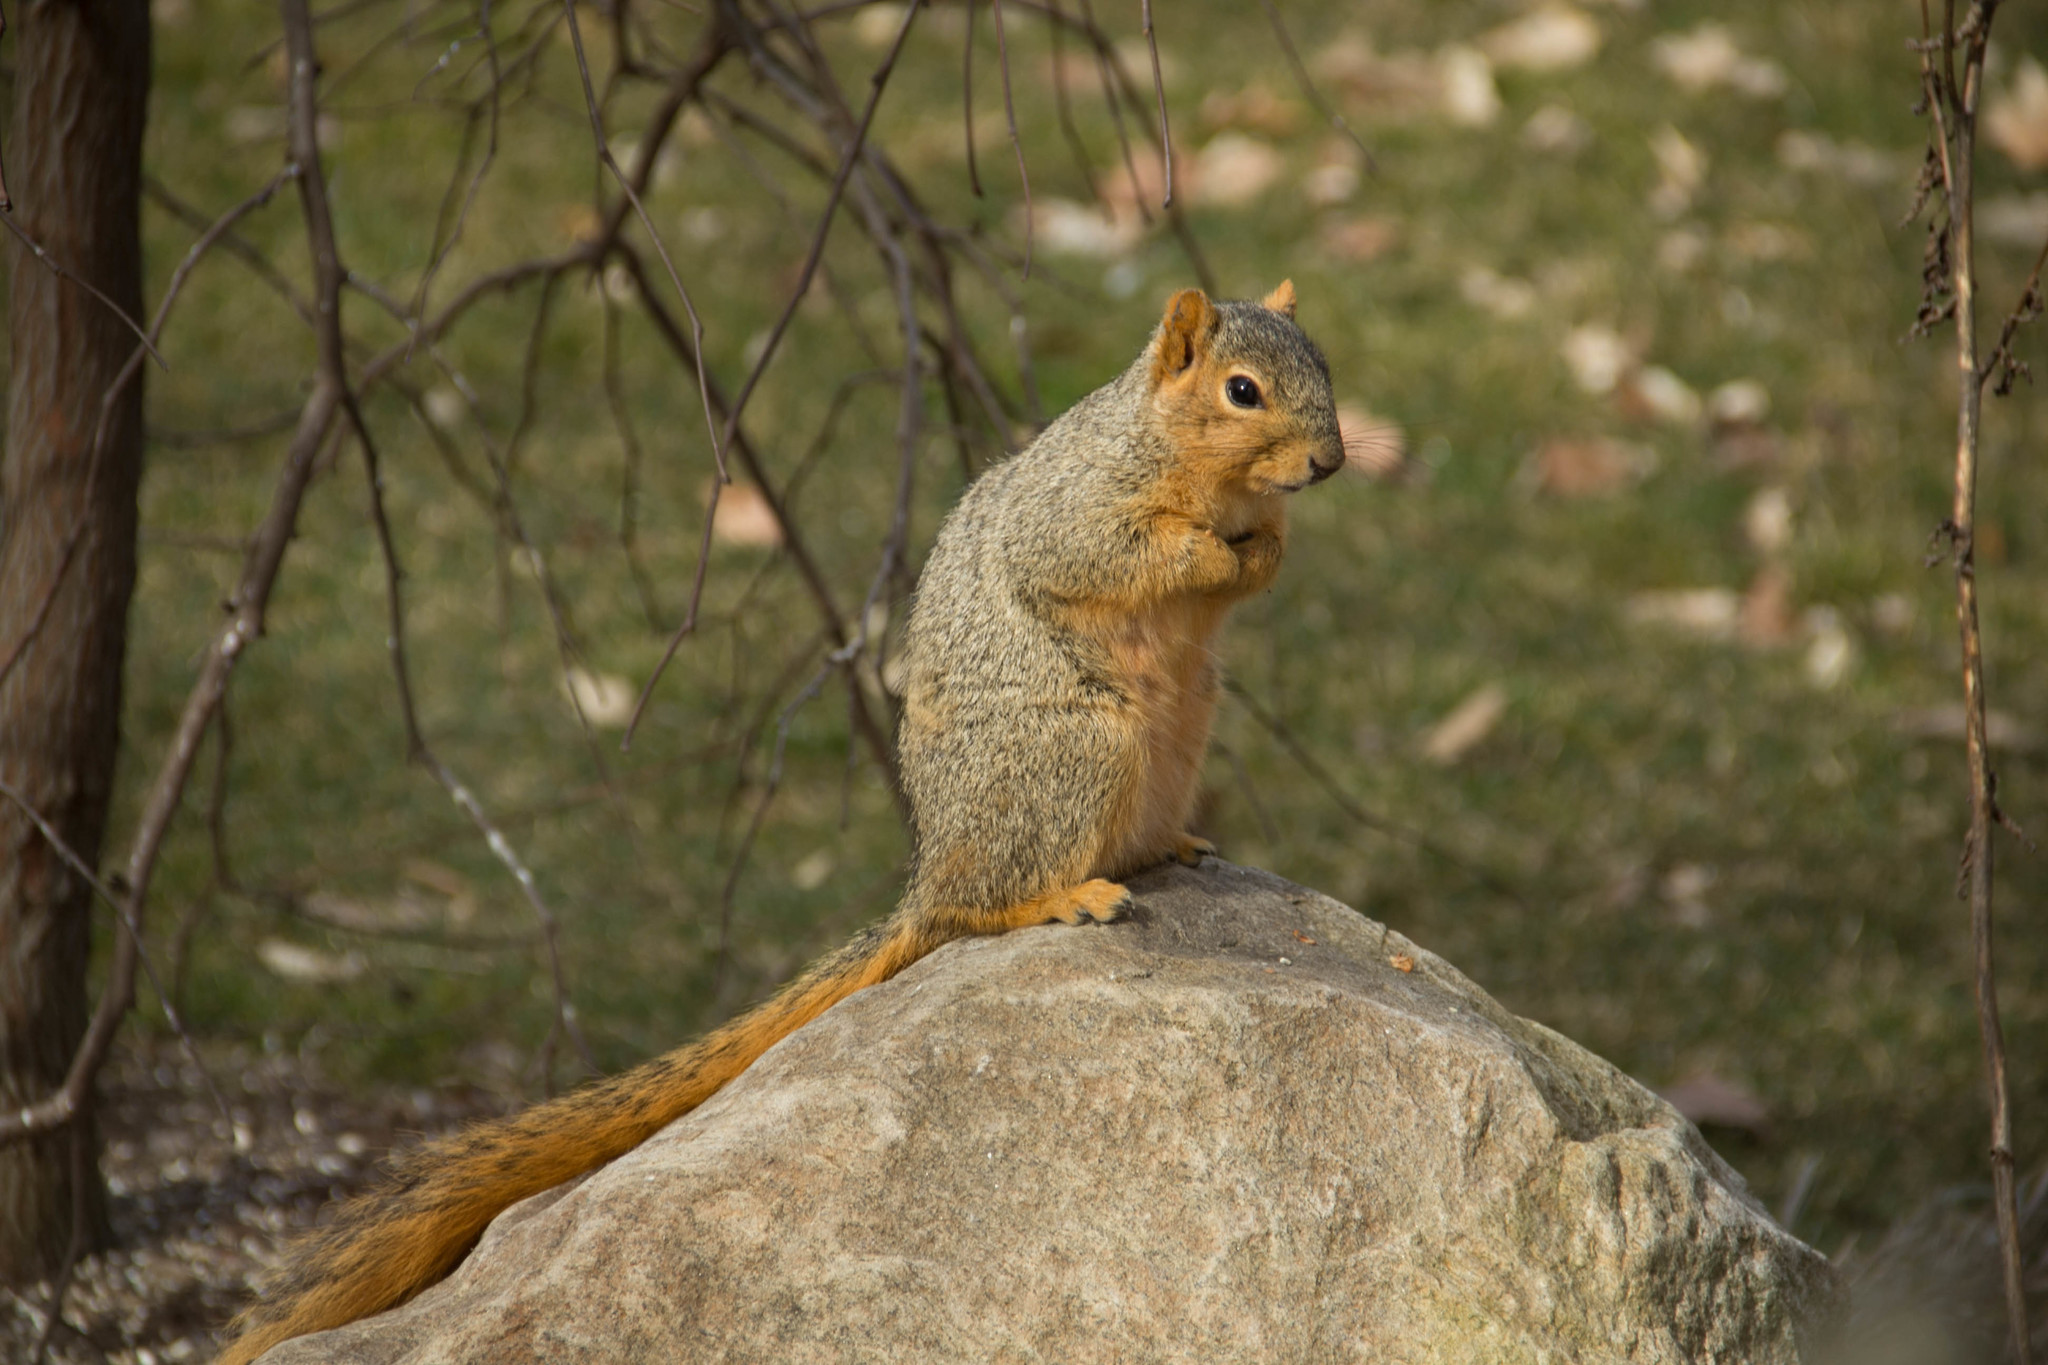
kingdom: Animalia
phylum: Chordata
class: Mammalia
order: Rodentia
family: Sciuridae
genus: Sciurus
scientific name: Sciurus niger
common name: Fox squirrel
